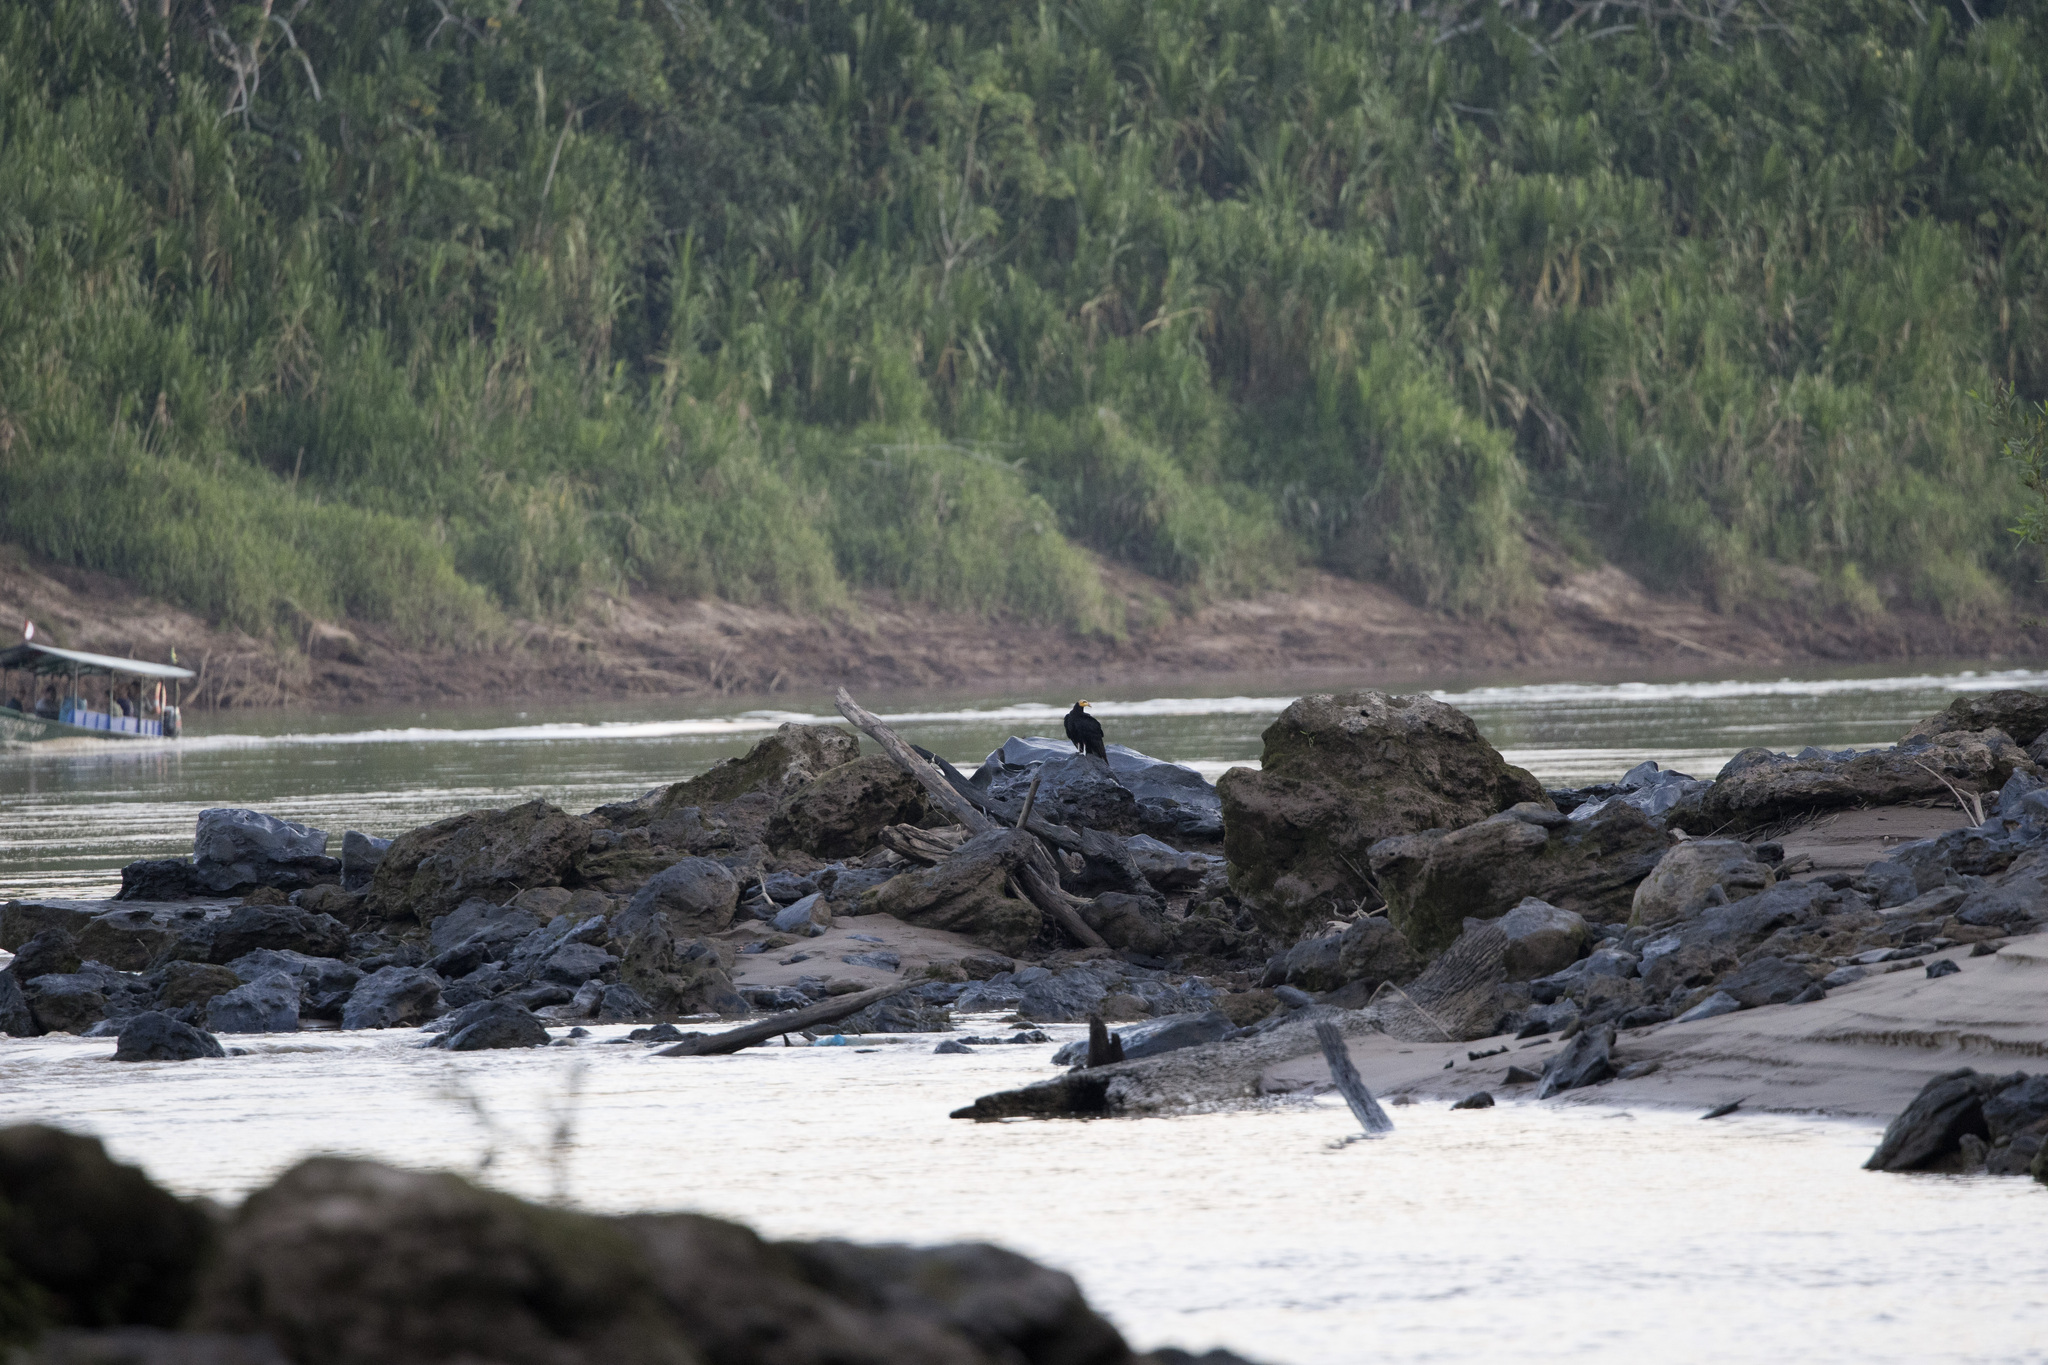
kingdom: Animalia
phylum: Chordata
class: Aves
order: Accipitriformes
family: Cathartidae
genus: Cathartes
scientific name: Cathartes melambrotus
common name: Greater yellow-headed vulture
